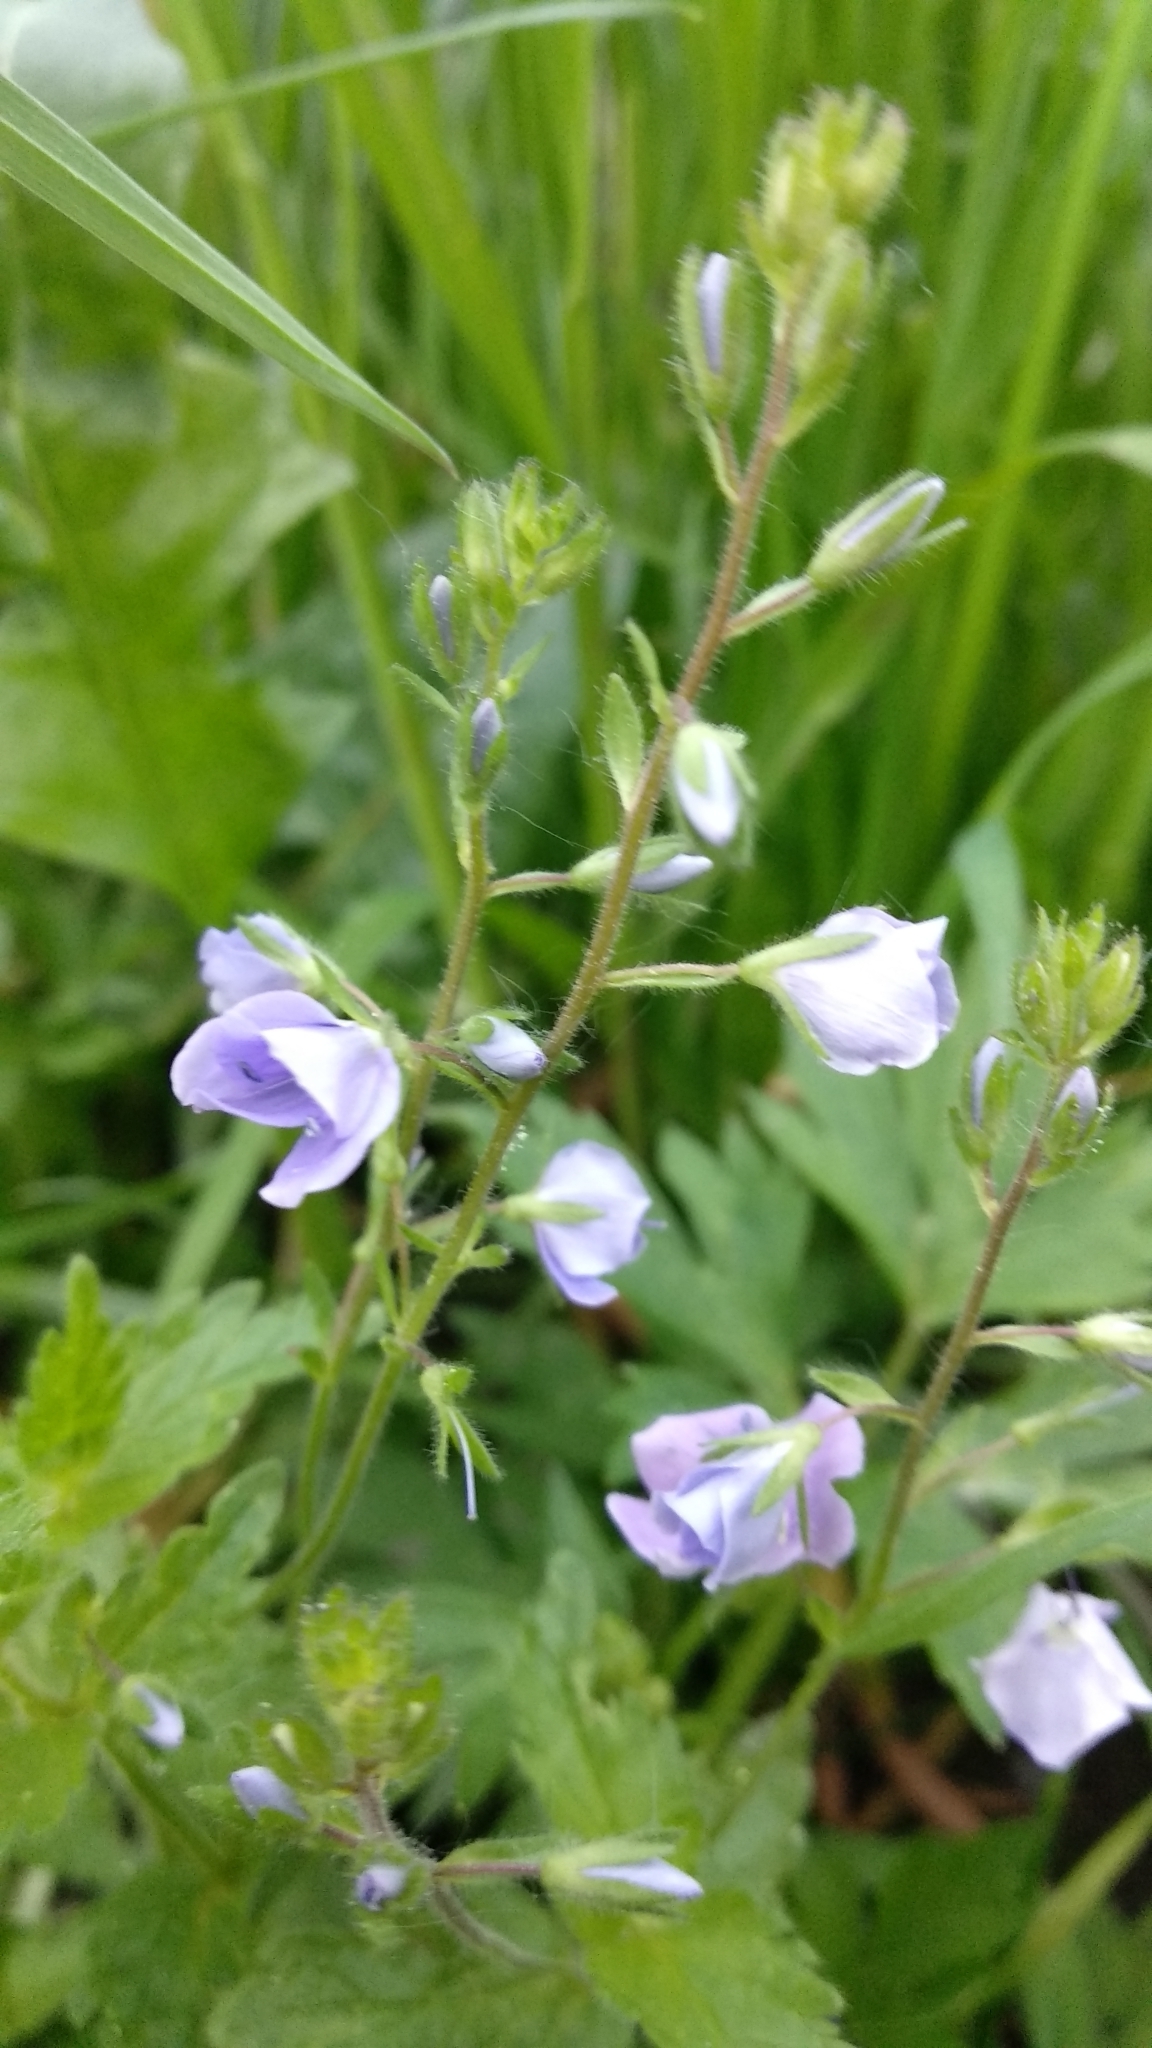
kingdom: Plantae
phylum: Tracheophyta
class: Magnoliopsida
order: Lamiales
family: Plantaginaceae
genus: Veronica
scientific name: Veronica chamaedrys
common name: Germander speedwell
